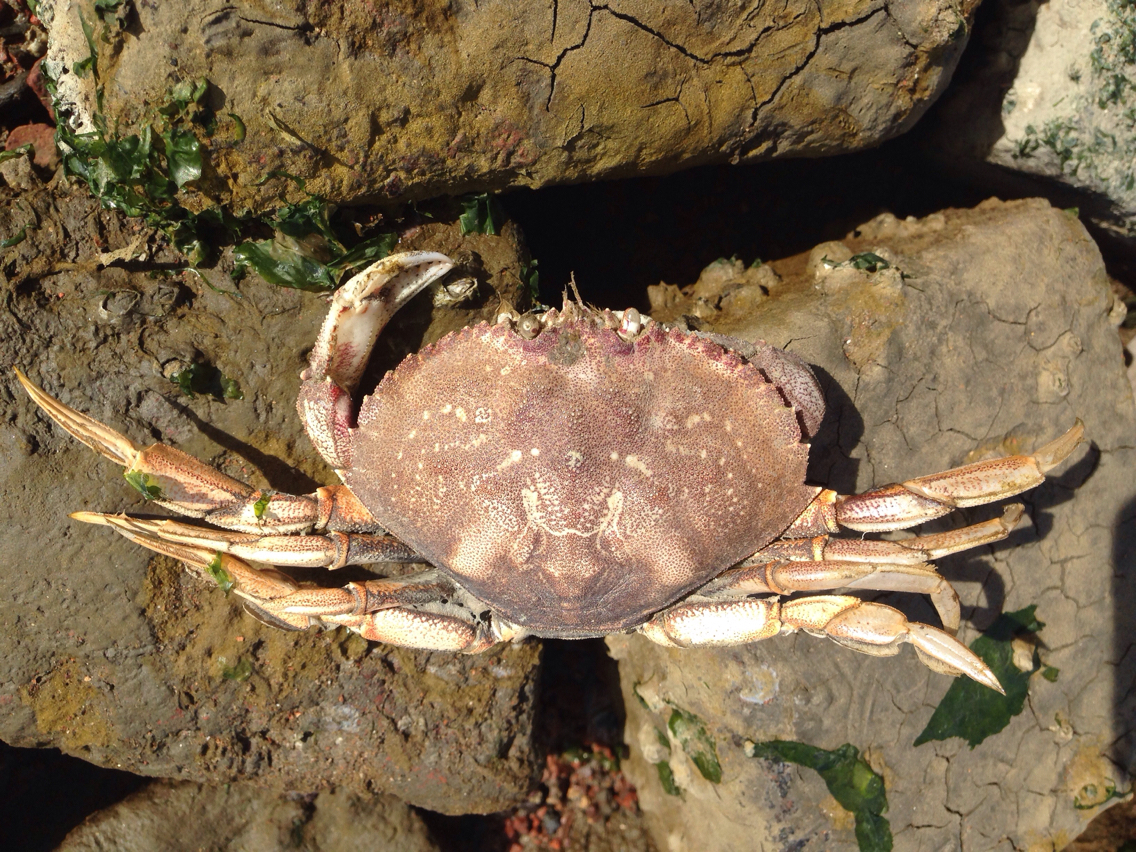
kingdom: Animalia
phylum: Arthropoda
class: Malacostraca
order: Decapoda
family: Cancridae
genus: Metacarcinus
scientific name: Metacarcinus magister
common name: Californian crab
